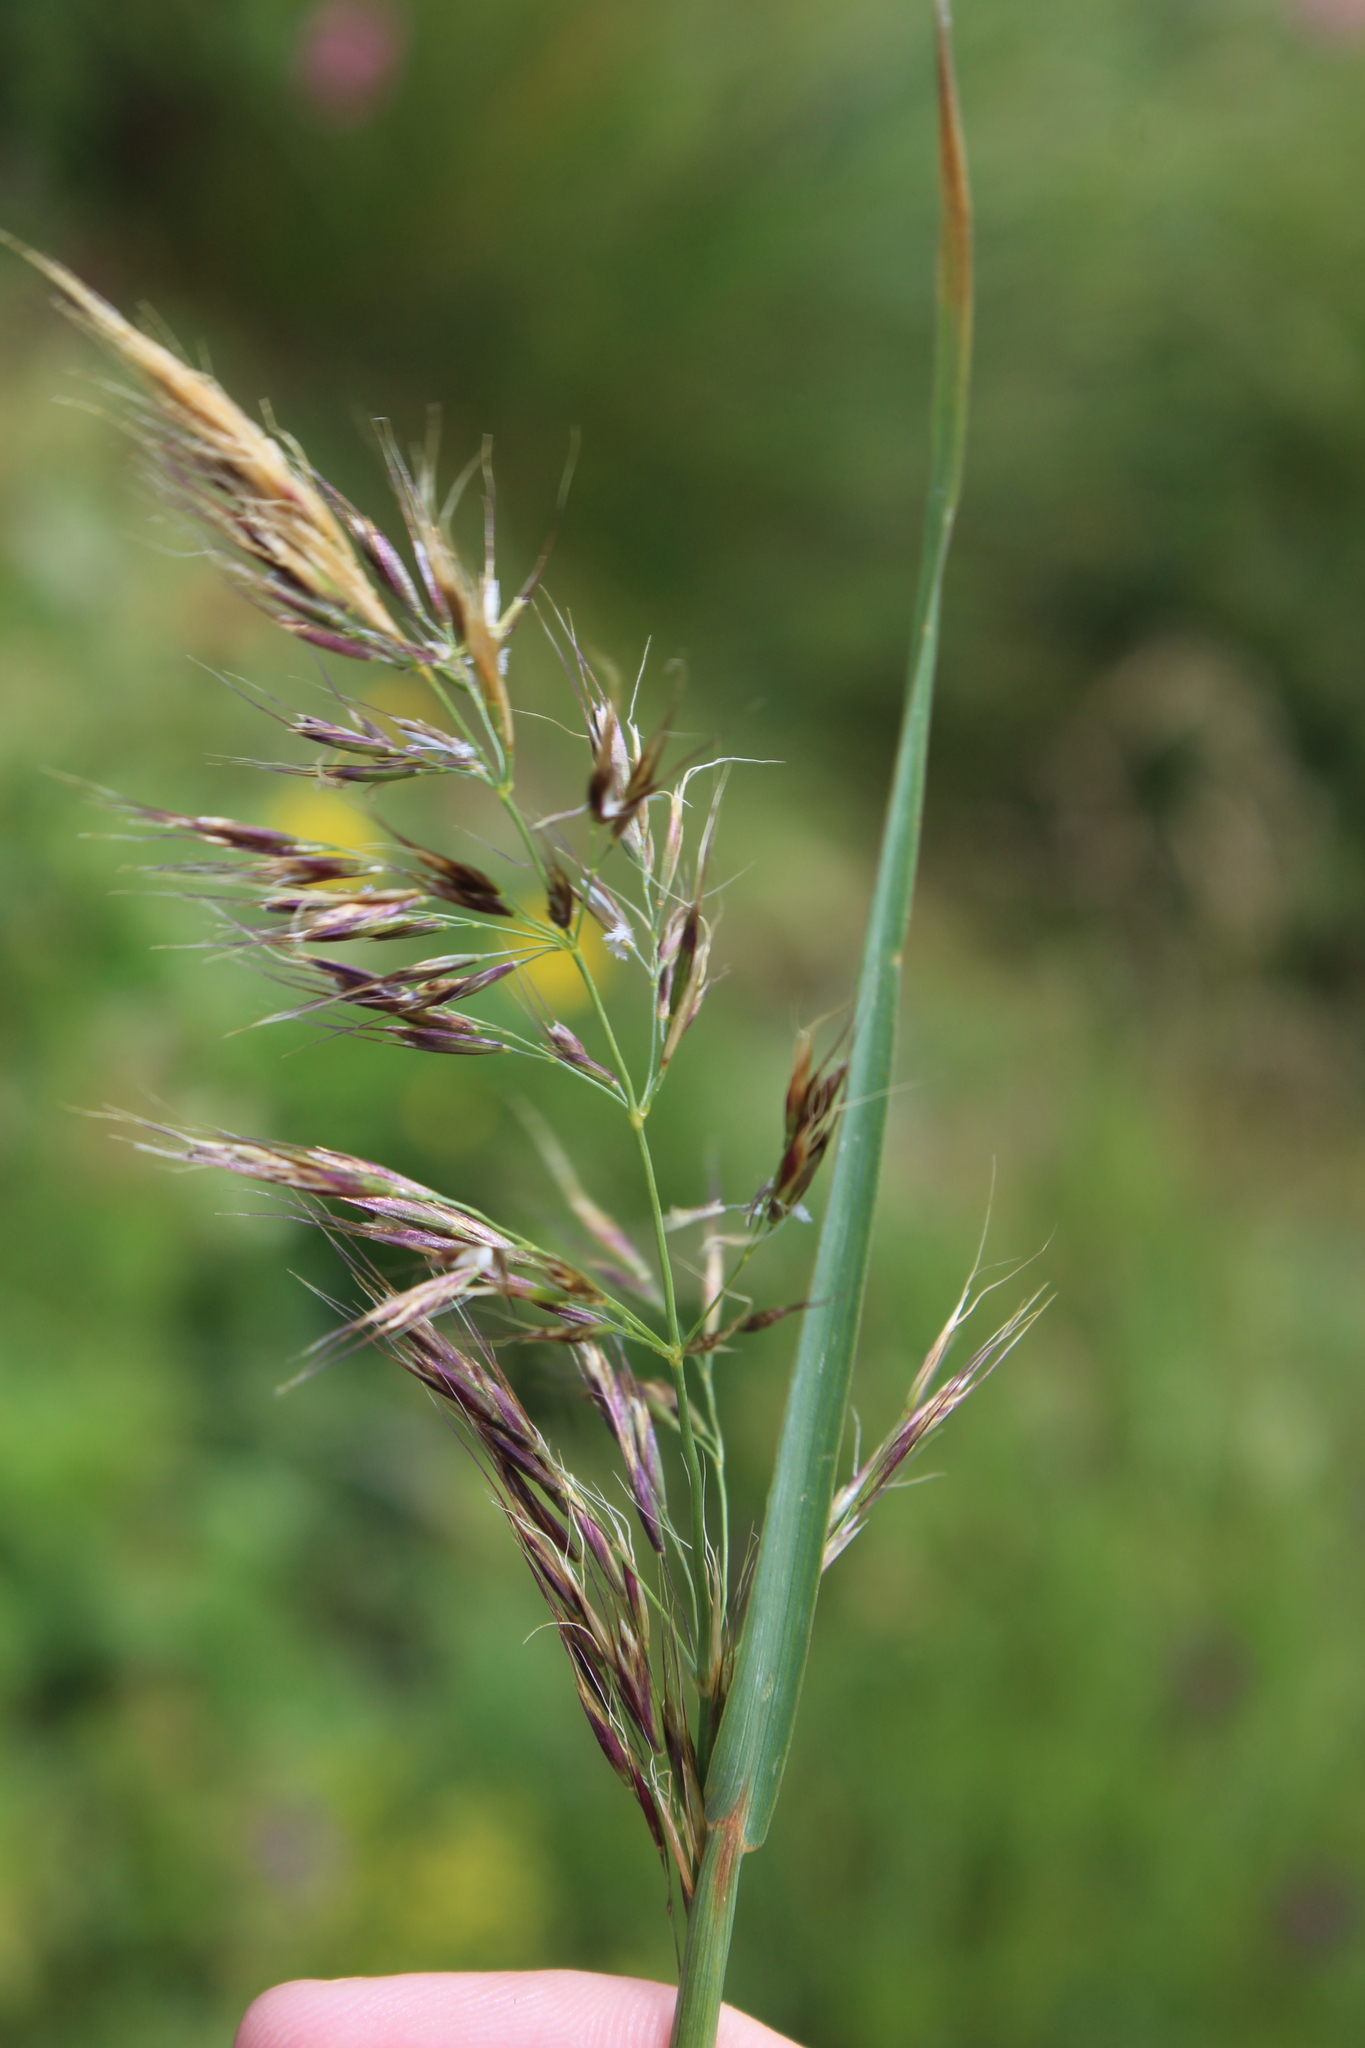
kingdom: Plantae
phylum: Tracheophyta
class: Liliopsida
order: Poales
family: Poaceae
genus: Bromus
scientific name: Bromus variegatus
